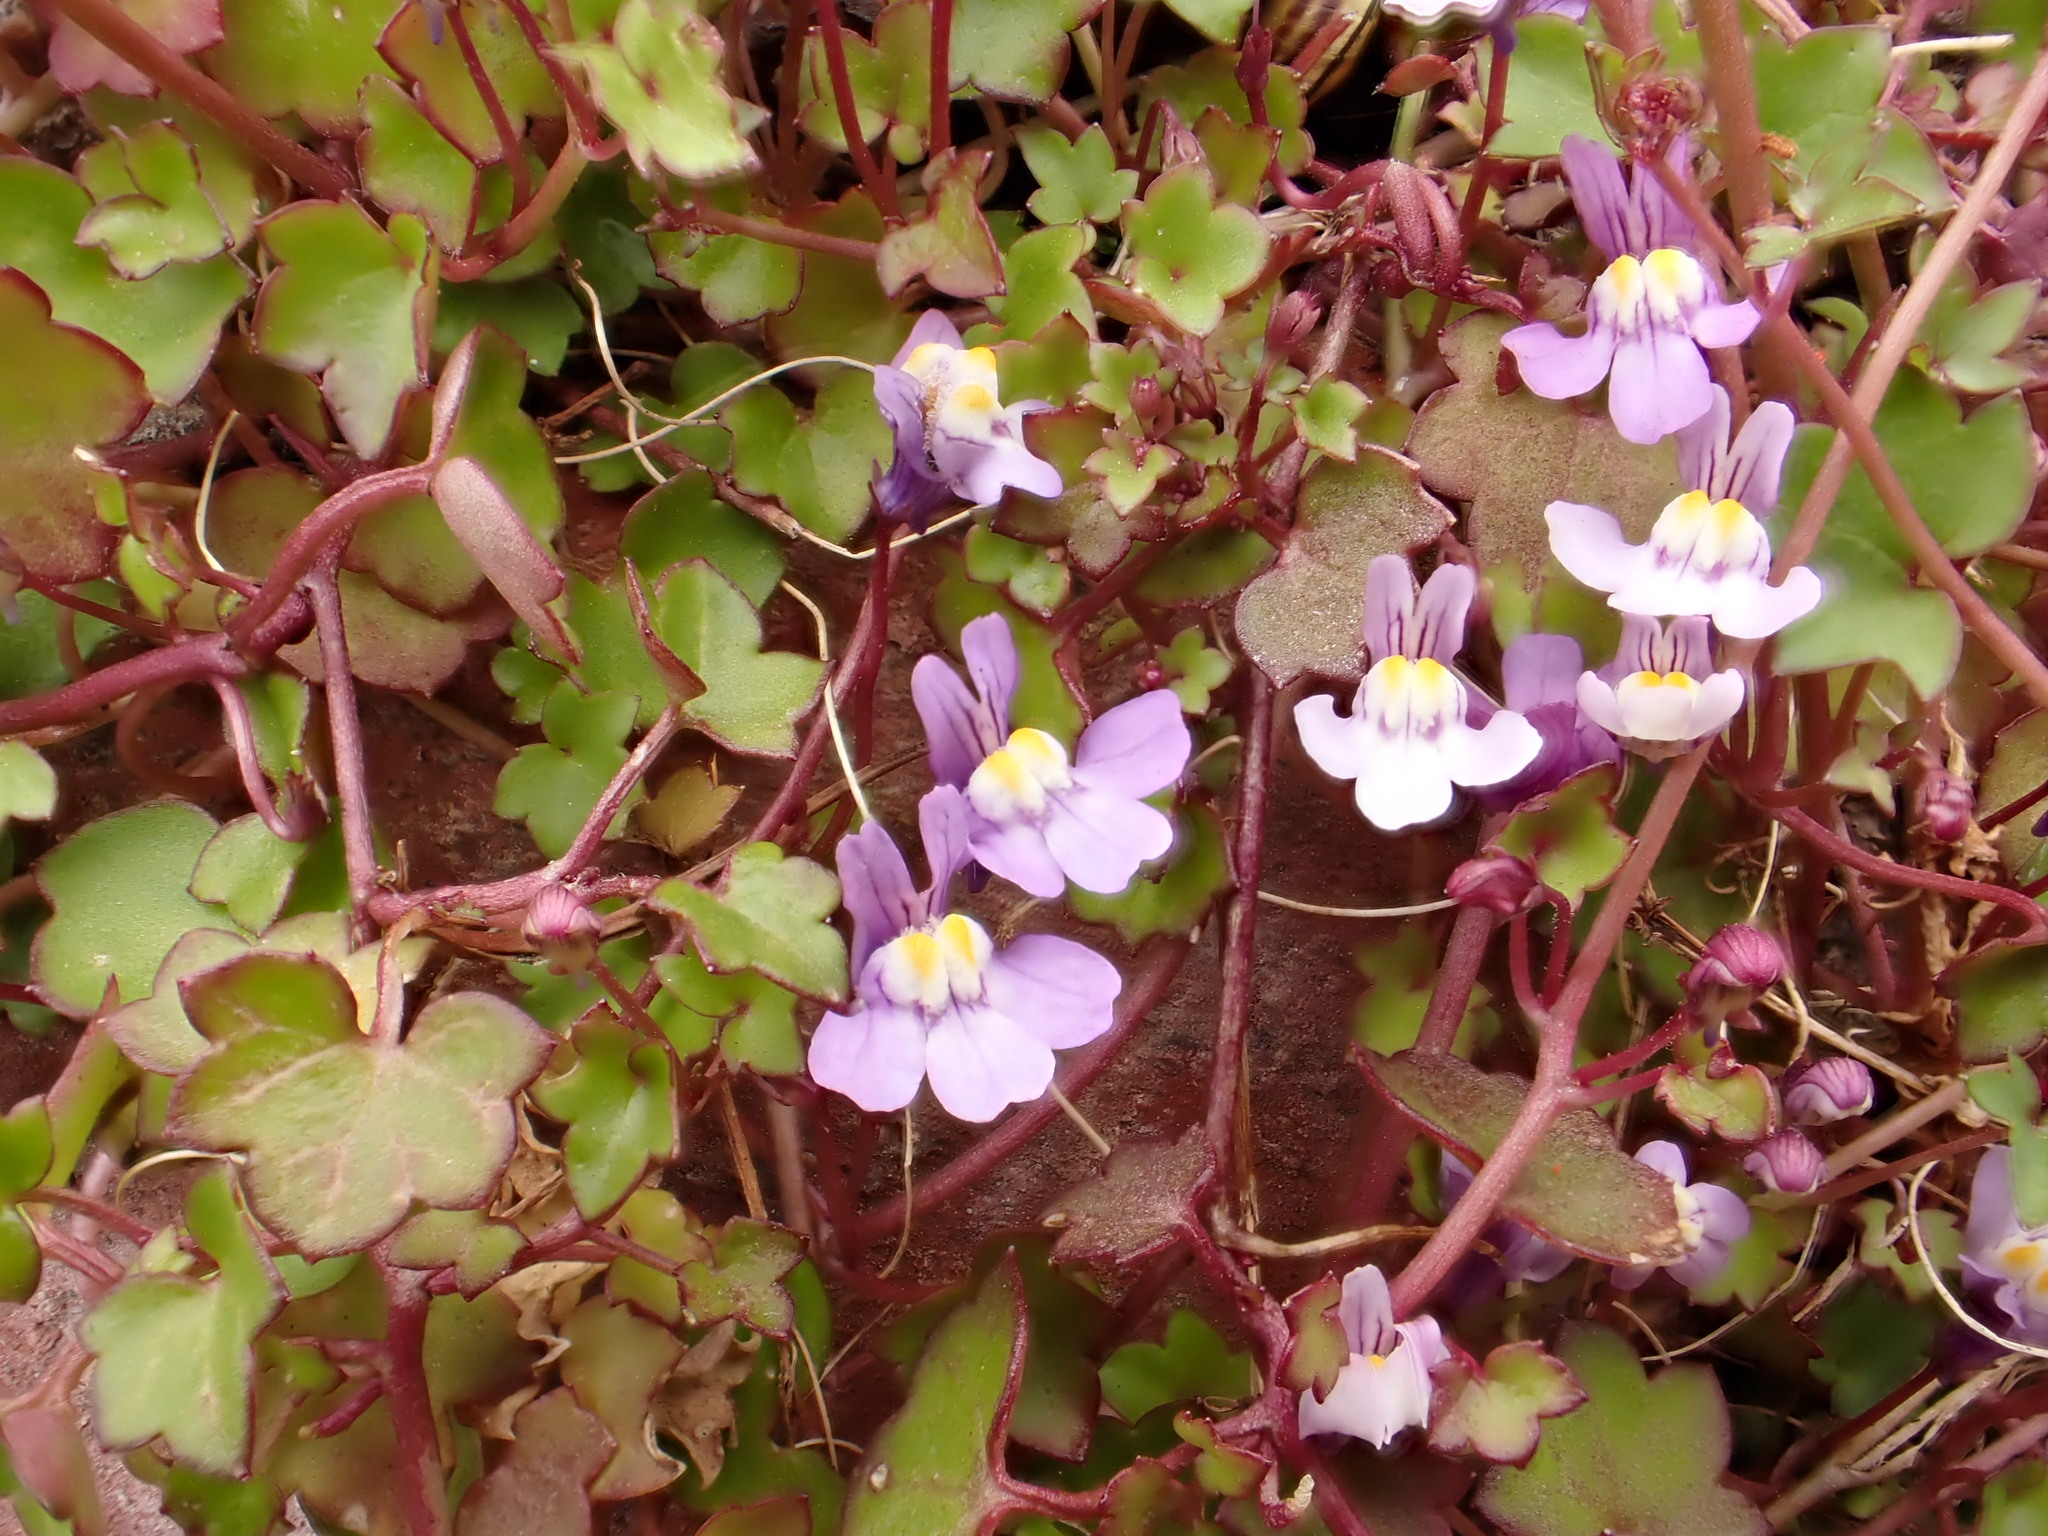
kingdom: Plantae
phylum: Tracheophyta
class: Magnoliopsida
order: Lamiales
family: Plantaginaceae
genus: Cymbalaria
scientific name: Cymbalaria muralis
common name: Ivy-leaved toadflax
